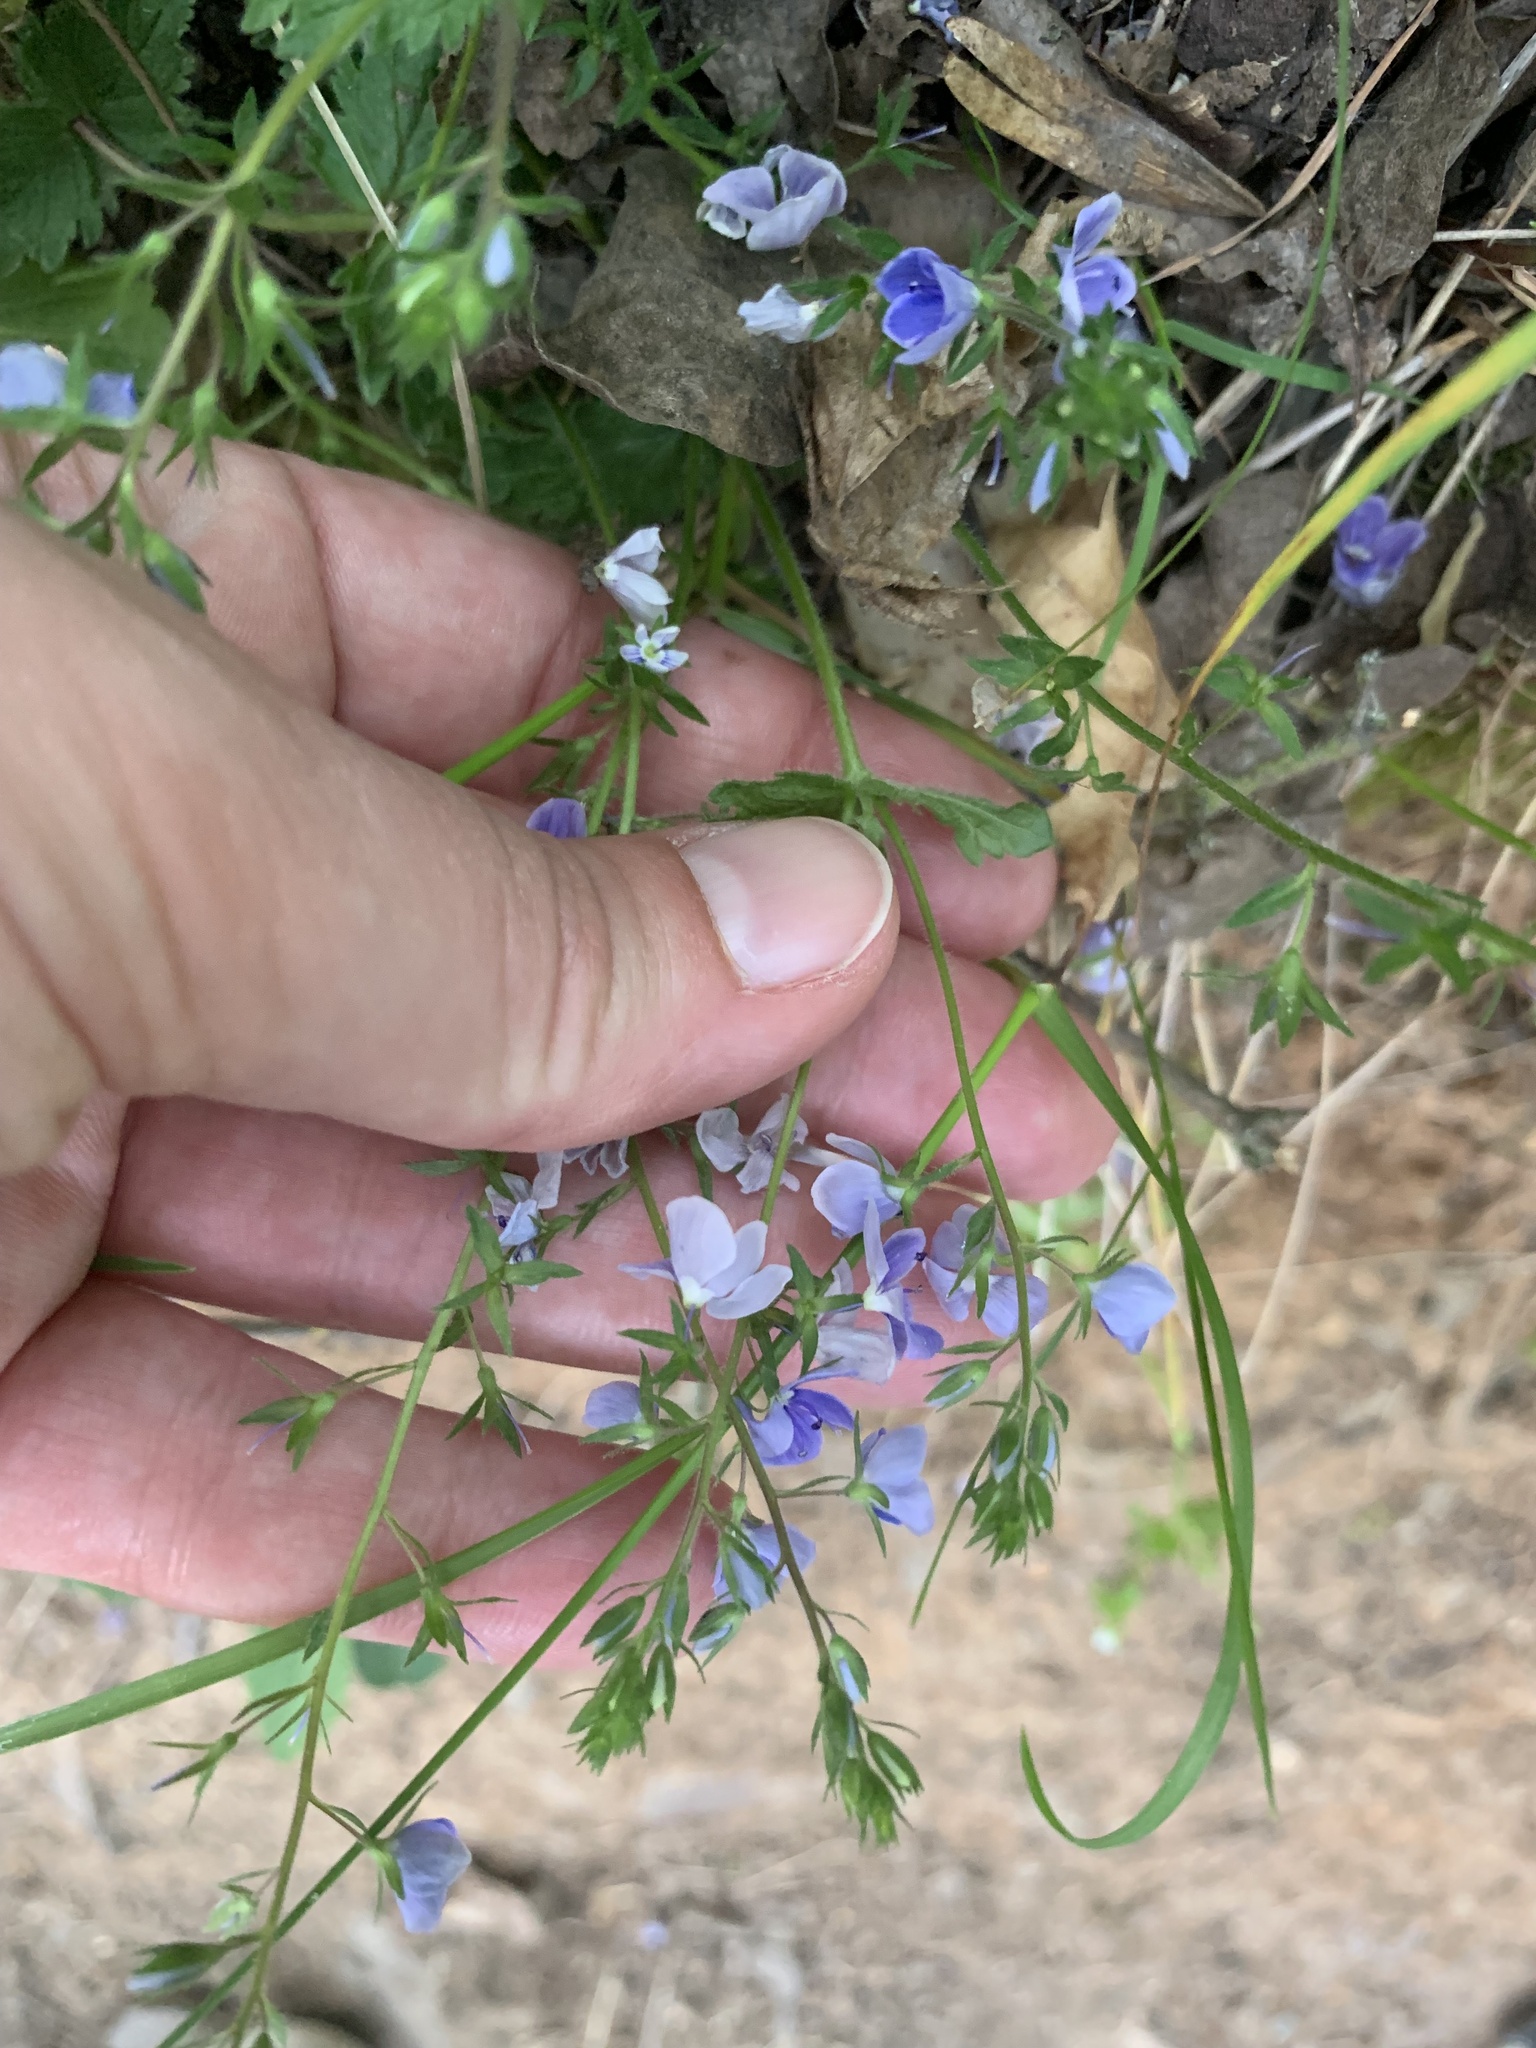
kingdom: Plantae
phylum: Tracheophyta
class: Magnoliopsida
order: Lamiales
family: Plantaginaceae
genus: Veronica
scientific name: Veronica chamaedrys
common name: Germander speedwell
